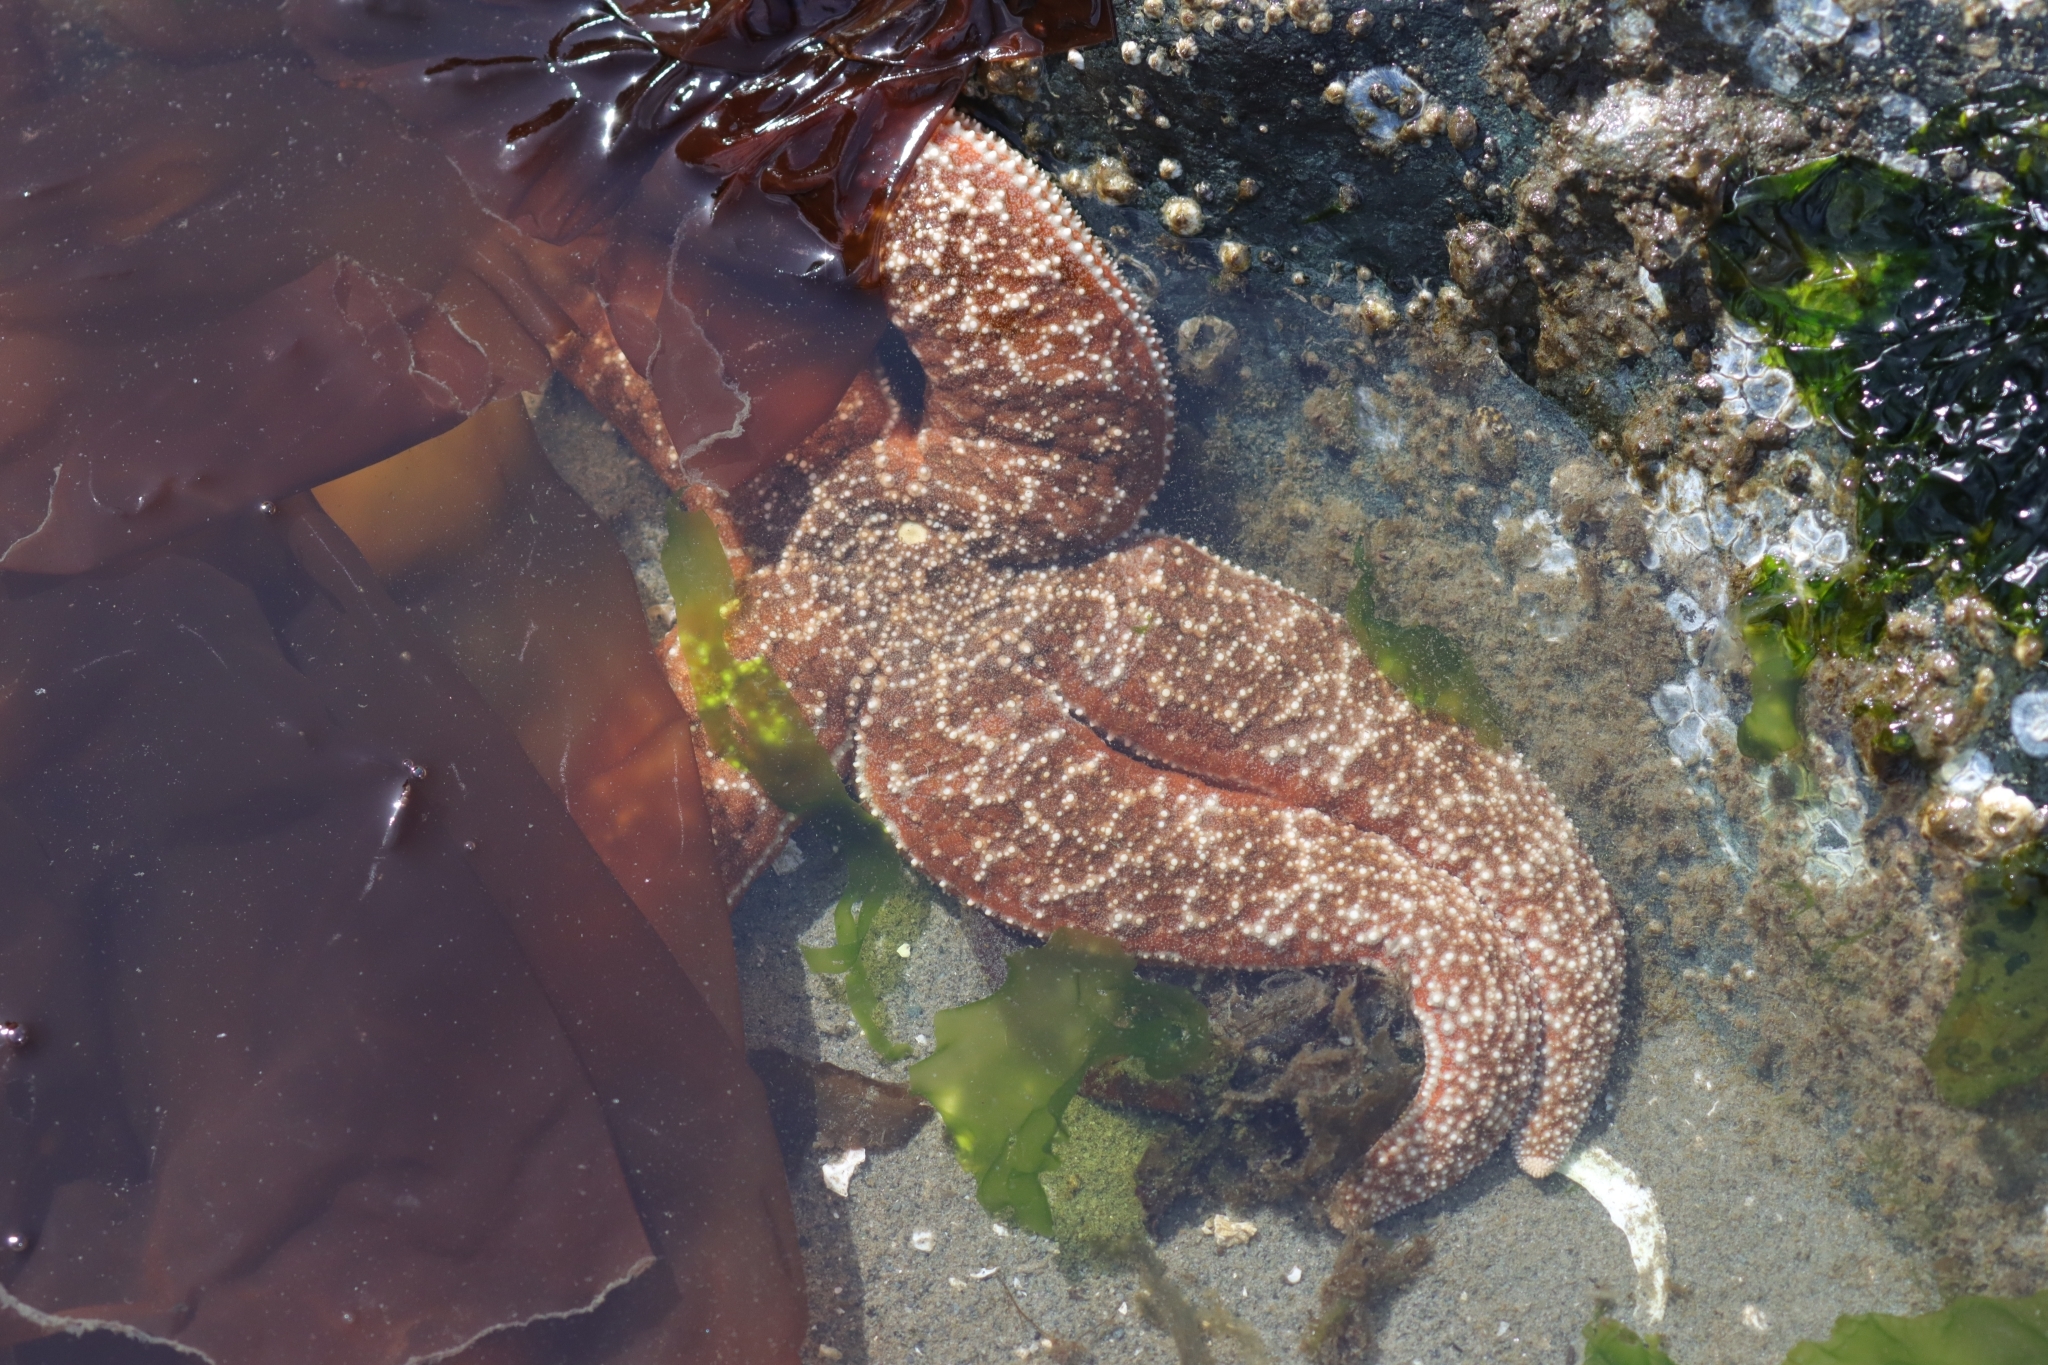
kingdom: Animalia
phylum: Echinodermata
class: Asteroidea
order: Forcipulatida
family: Asteriidae
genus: Evasterias
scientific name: Evasterias troschelii
